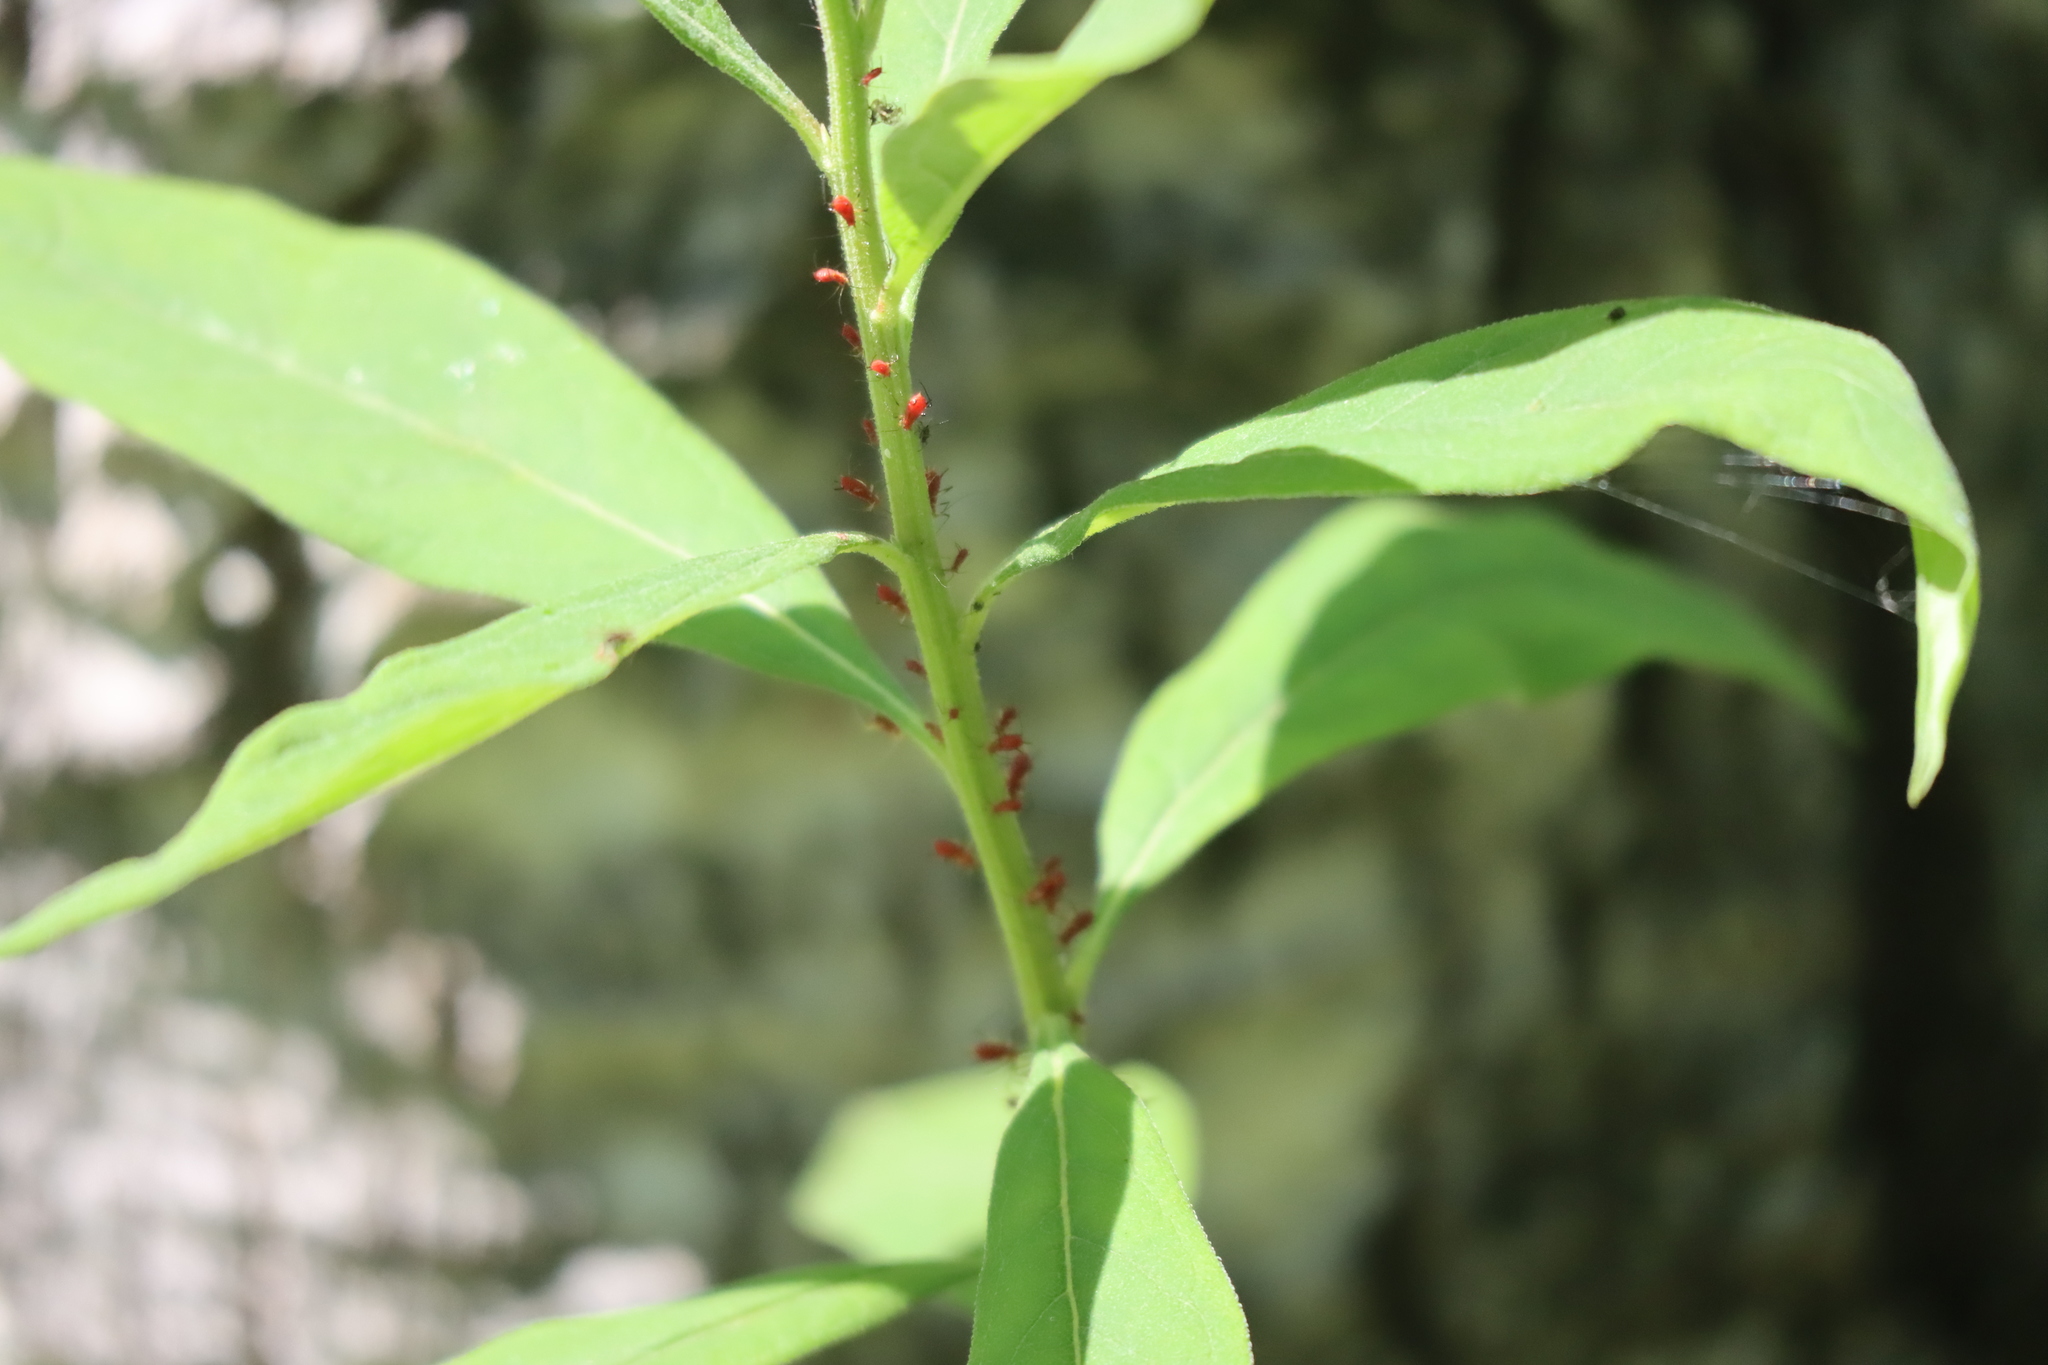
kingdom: Plantae
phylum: Tracheophyta
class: Magnoliopsida
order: Myrtales
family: Onagraceae
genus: Chamaenerion
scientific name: Chamaenerion angustifolium
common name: Fireweed
